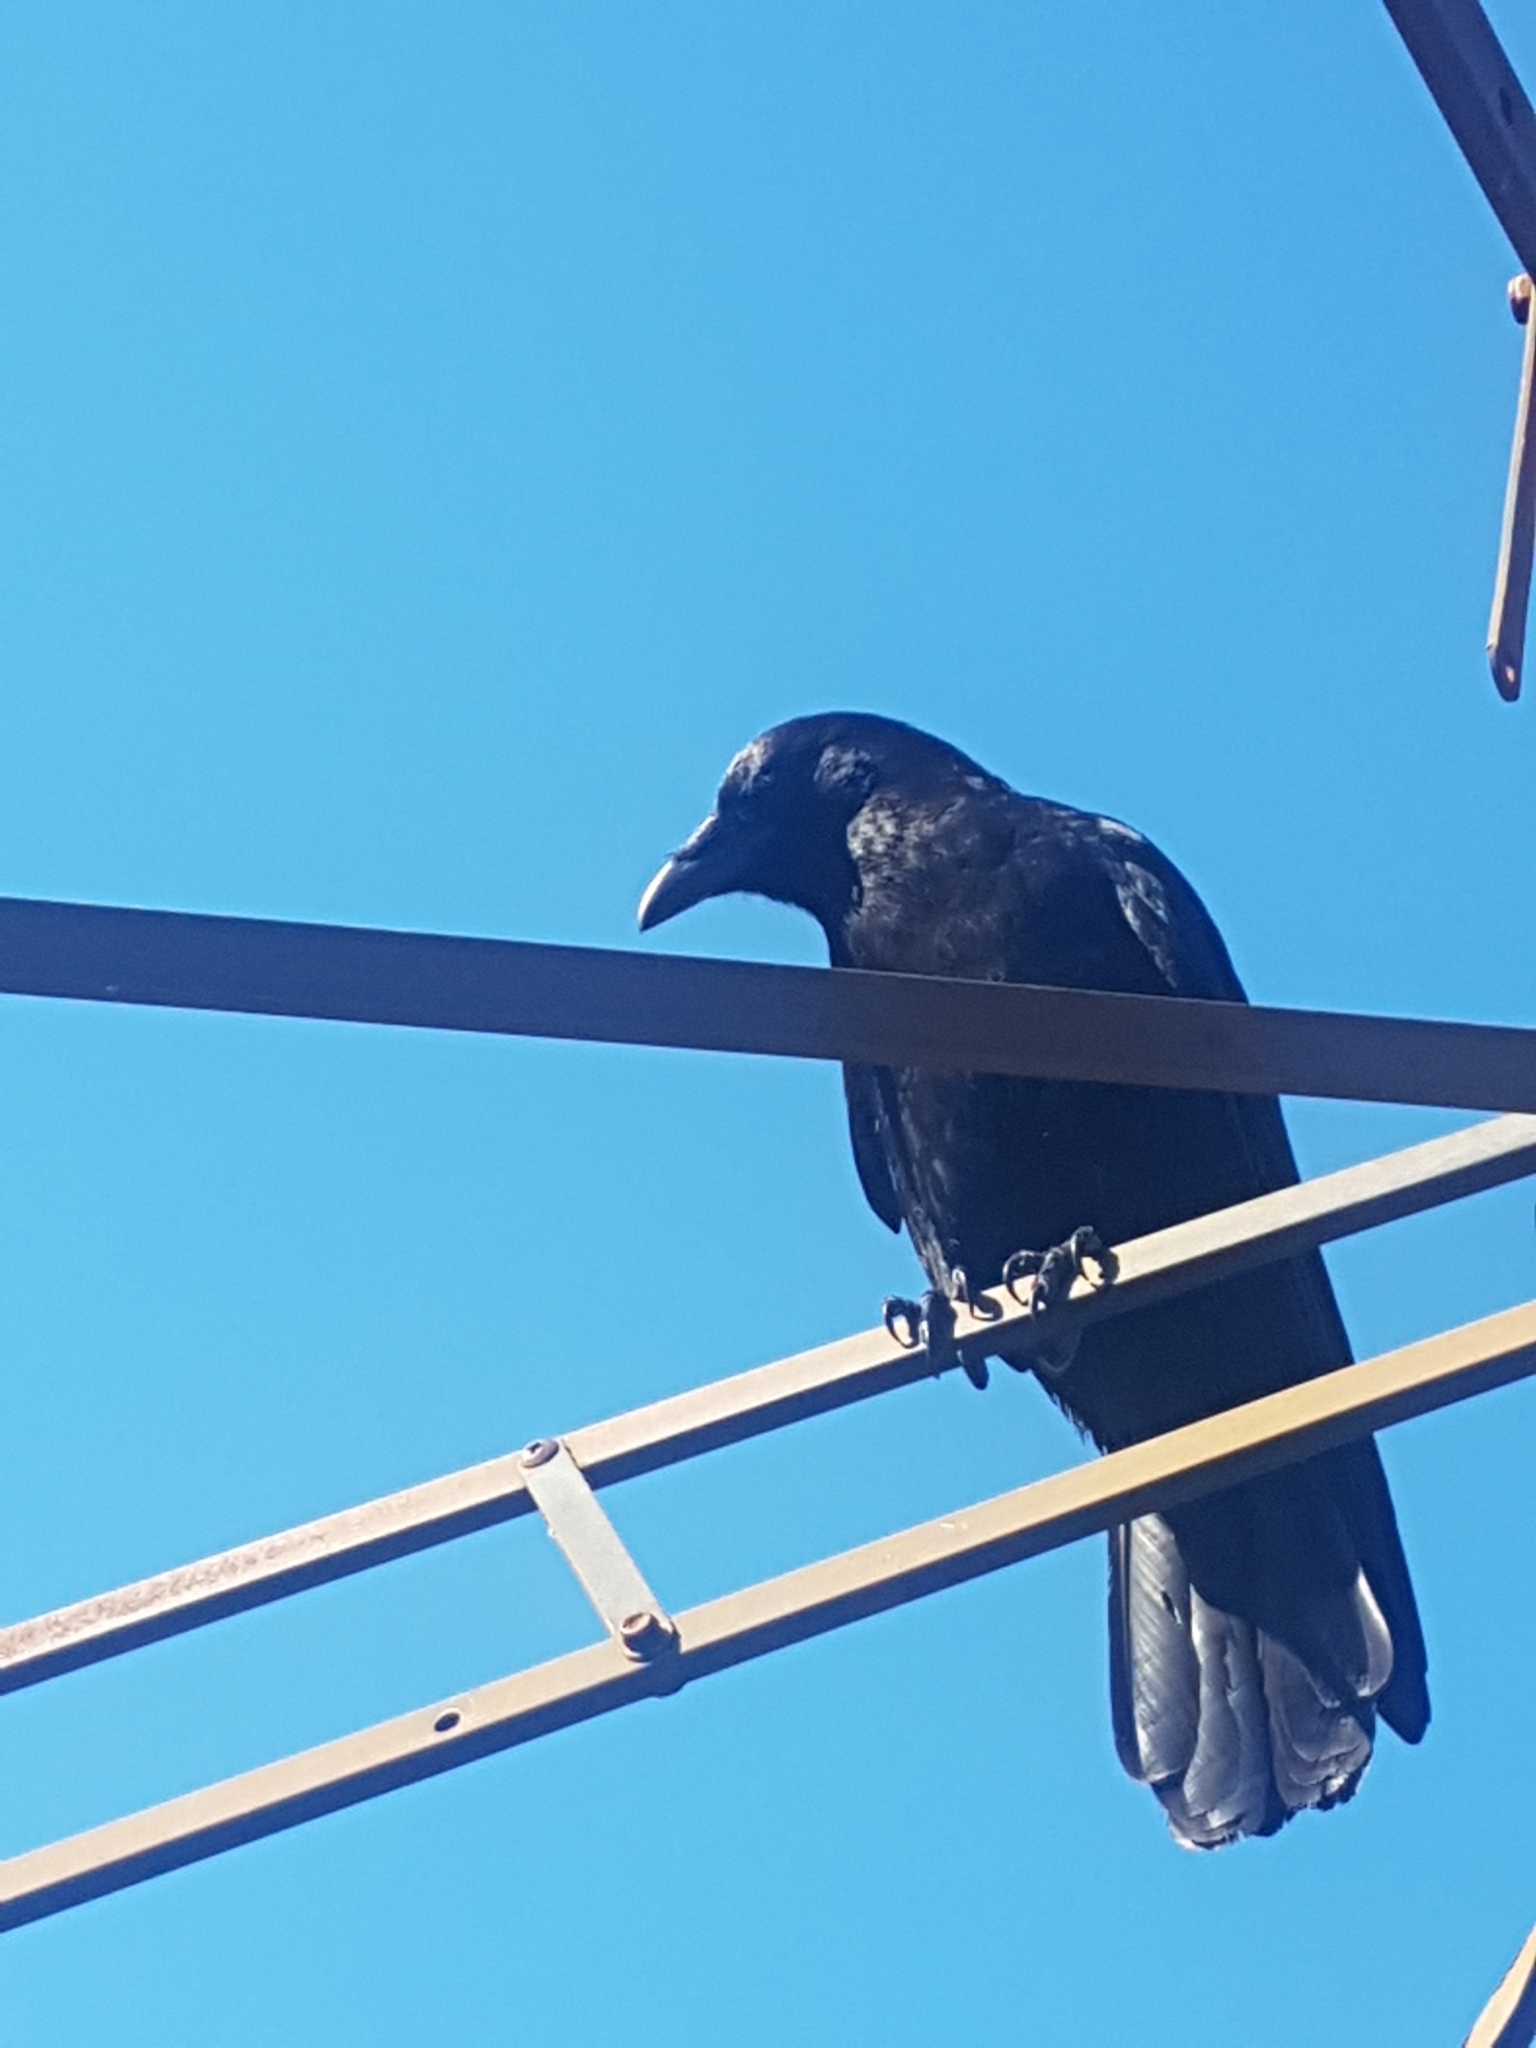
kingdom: Animalia
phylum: Chordata
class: Aves
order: Passeriformes
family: Corvidae
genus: Corvus
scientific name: Corvus brachyrhynchos
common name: American crow
